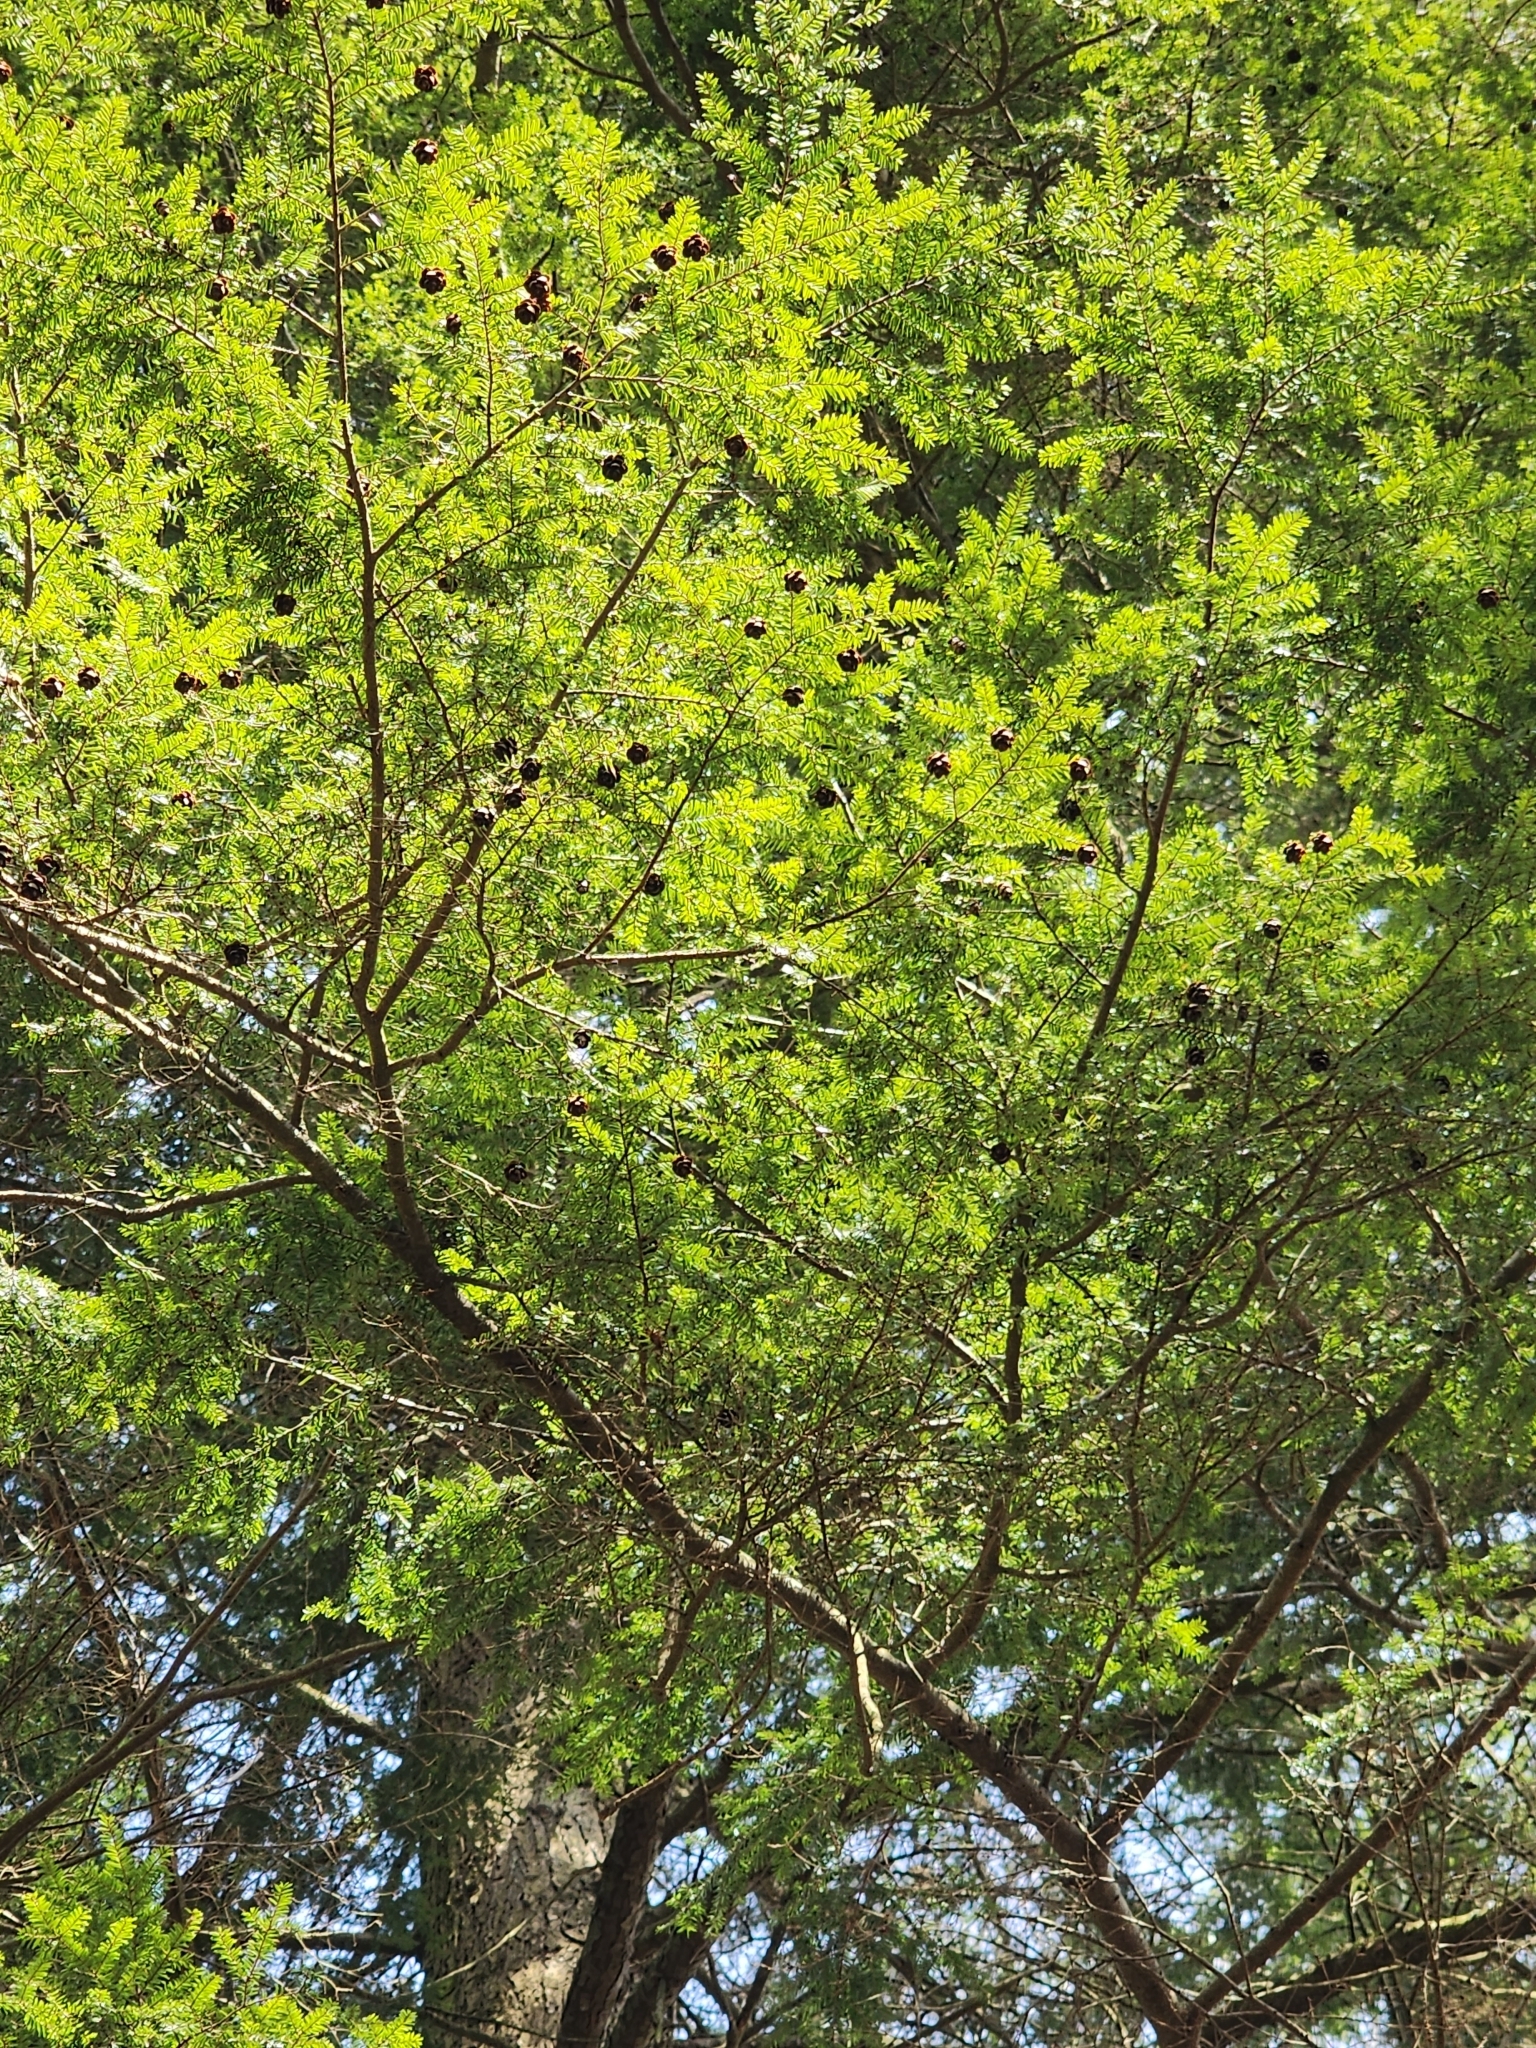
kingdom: Plantae
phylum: Tracheophyta
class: Pinopsida
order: Pinales
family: Pinaceae
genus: Tsuga
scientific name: Tsuga canadensis
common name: Eastern hemlock
